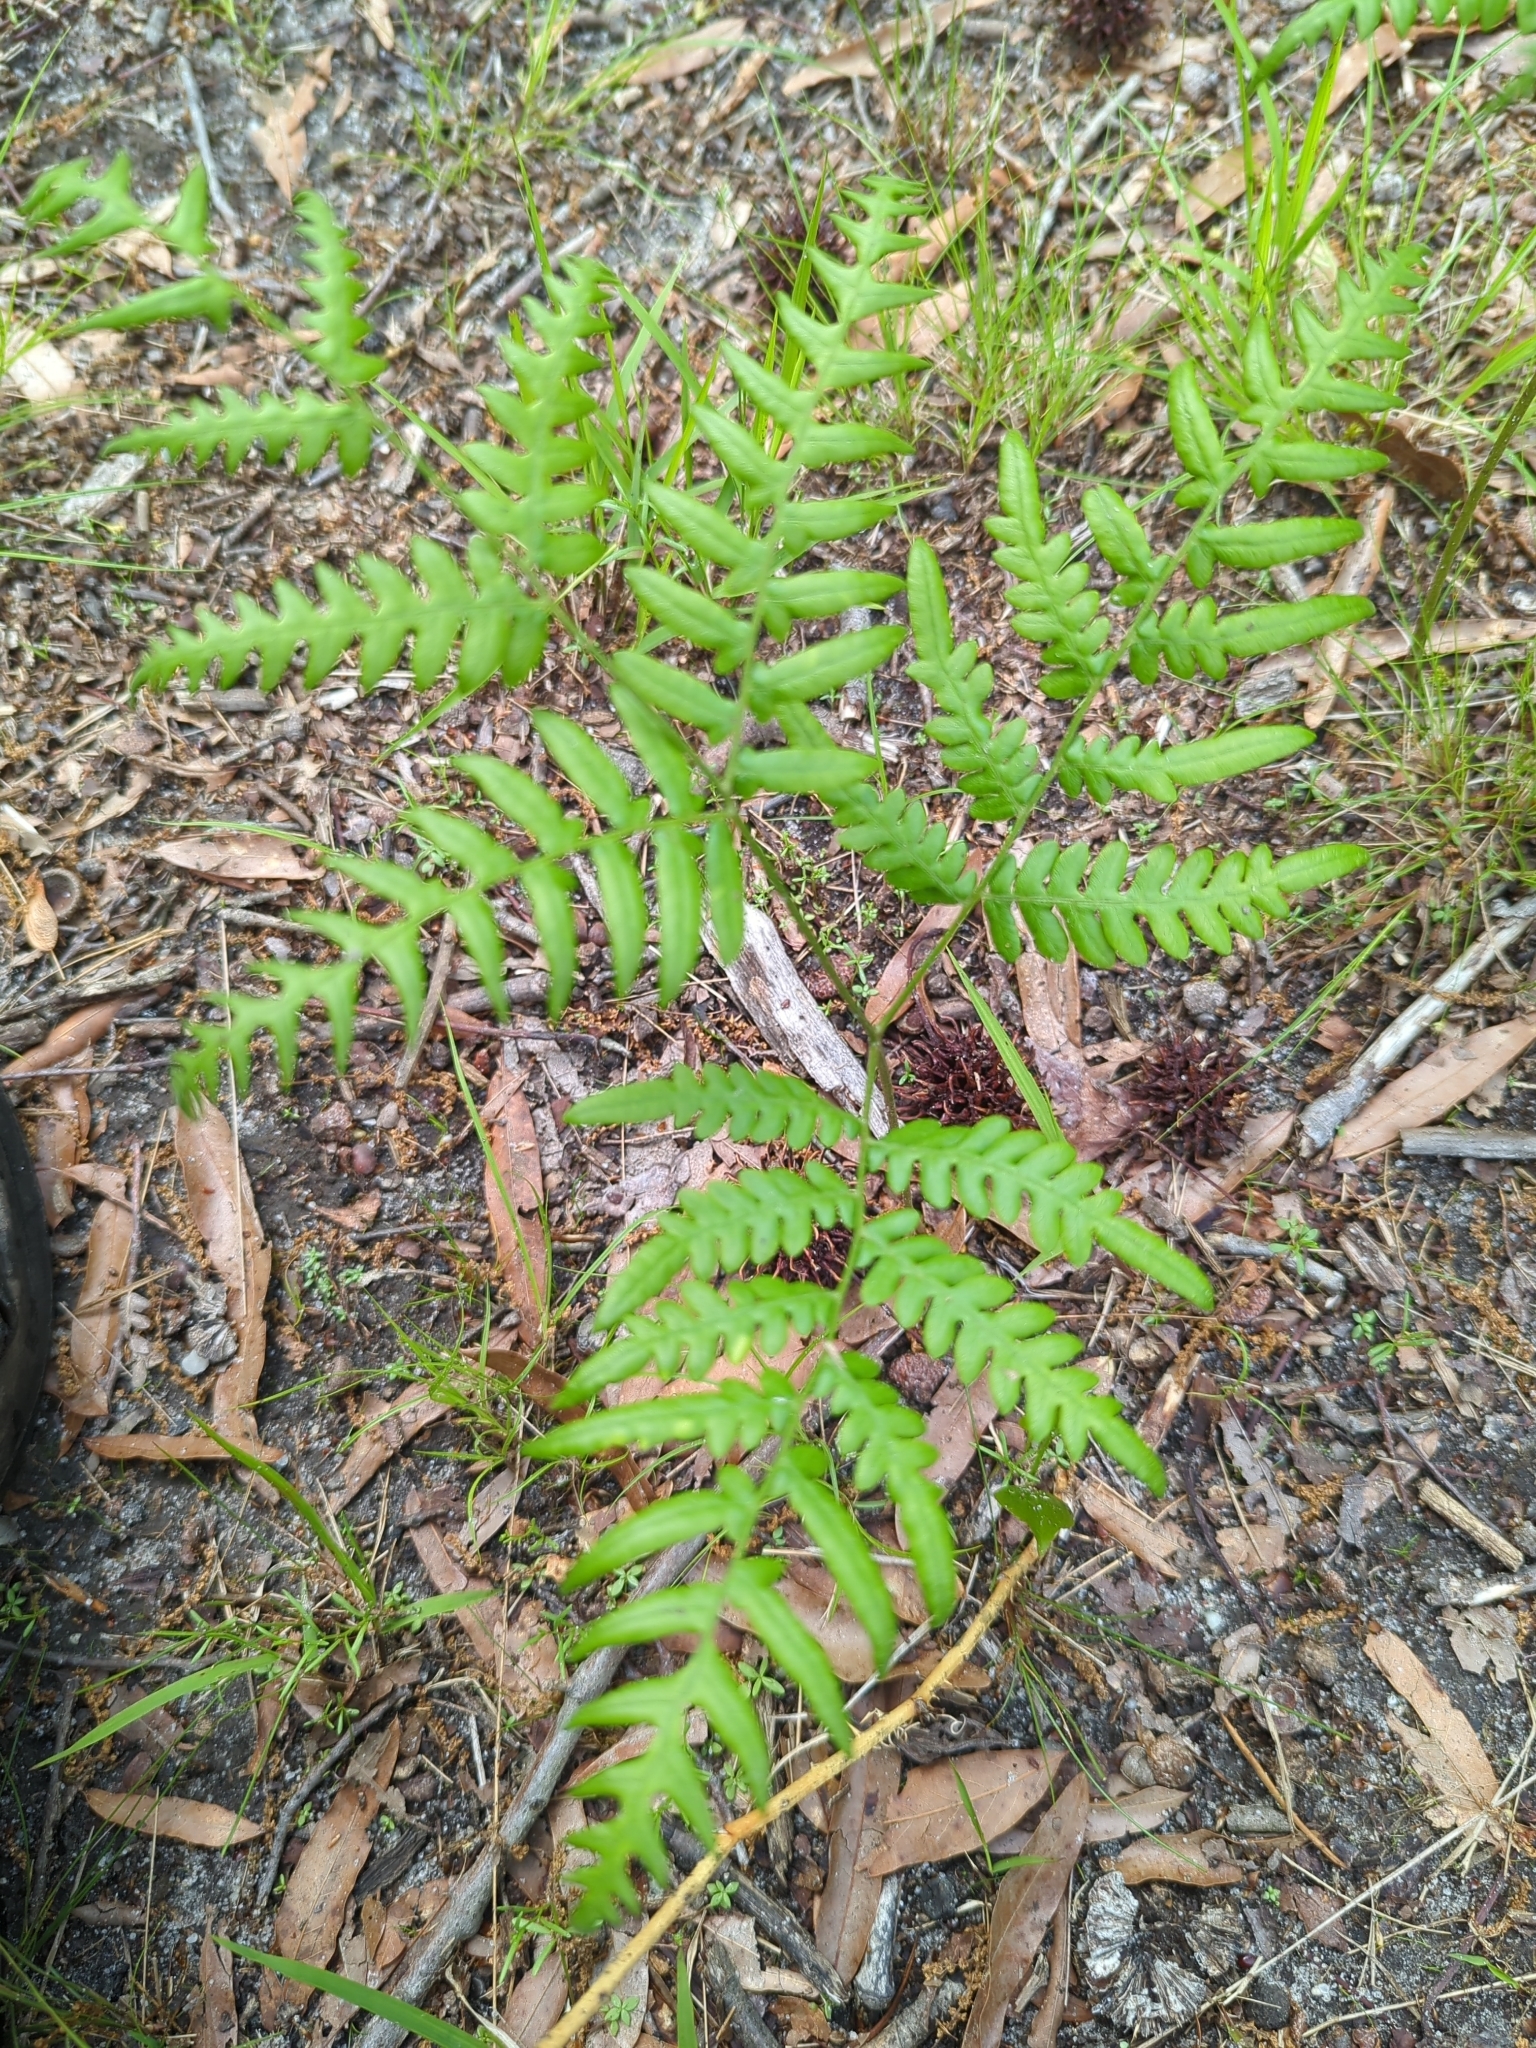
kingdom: Plantae
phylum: Tracheophyta
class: Polypodiopsida
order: Polypodiales
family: Dennstaedtiaceae
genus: Pteridium
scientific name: Pteridium aquilinum
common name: Bracken
